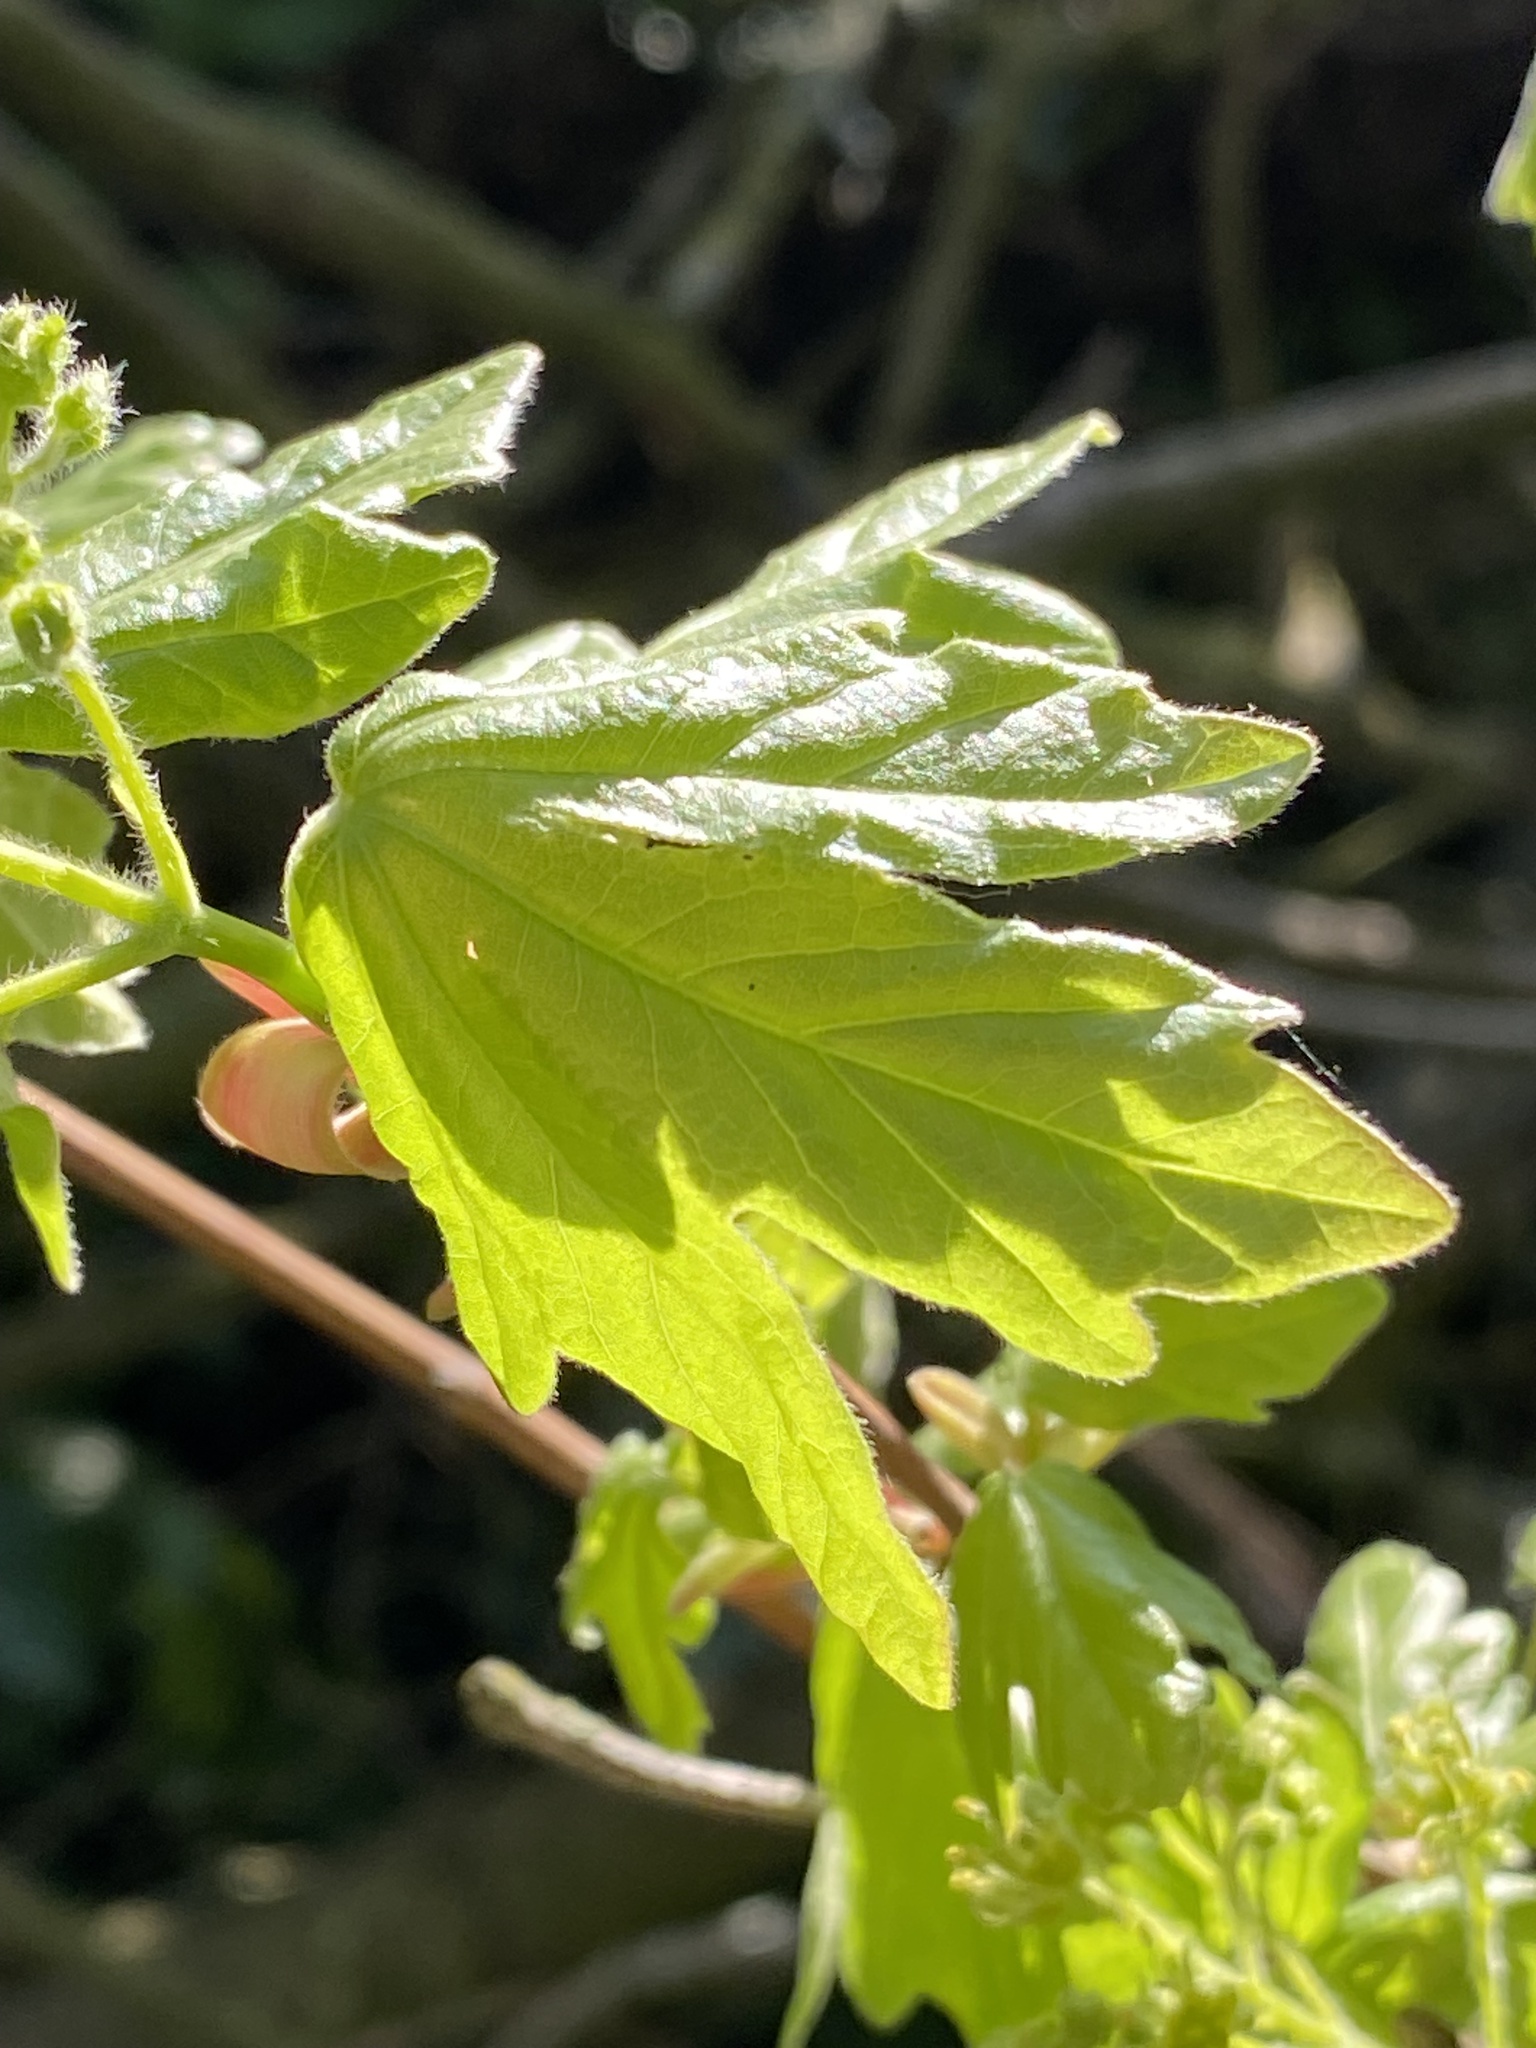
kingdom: Plantae
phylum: Tracheophyta
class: Magnoliopsida
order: Sapindales
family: Sapindaceae
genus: Acer
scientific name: Acer campestre
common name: Field maple
